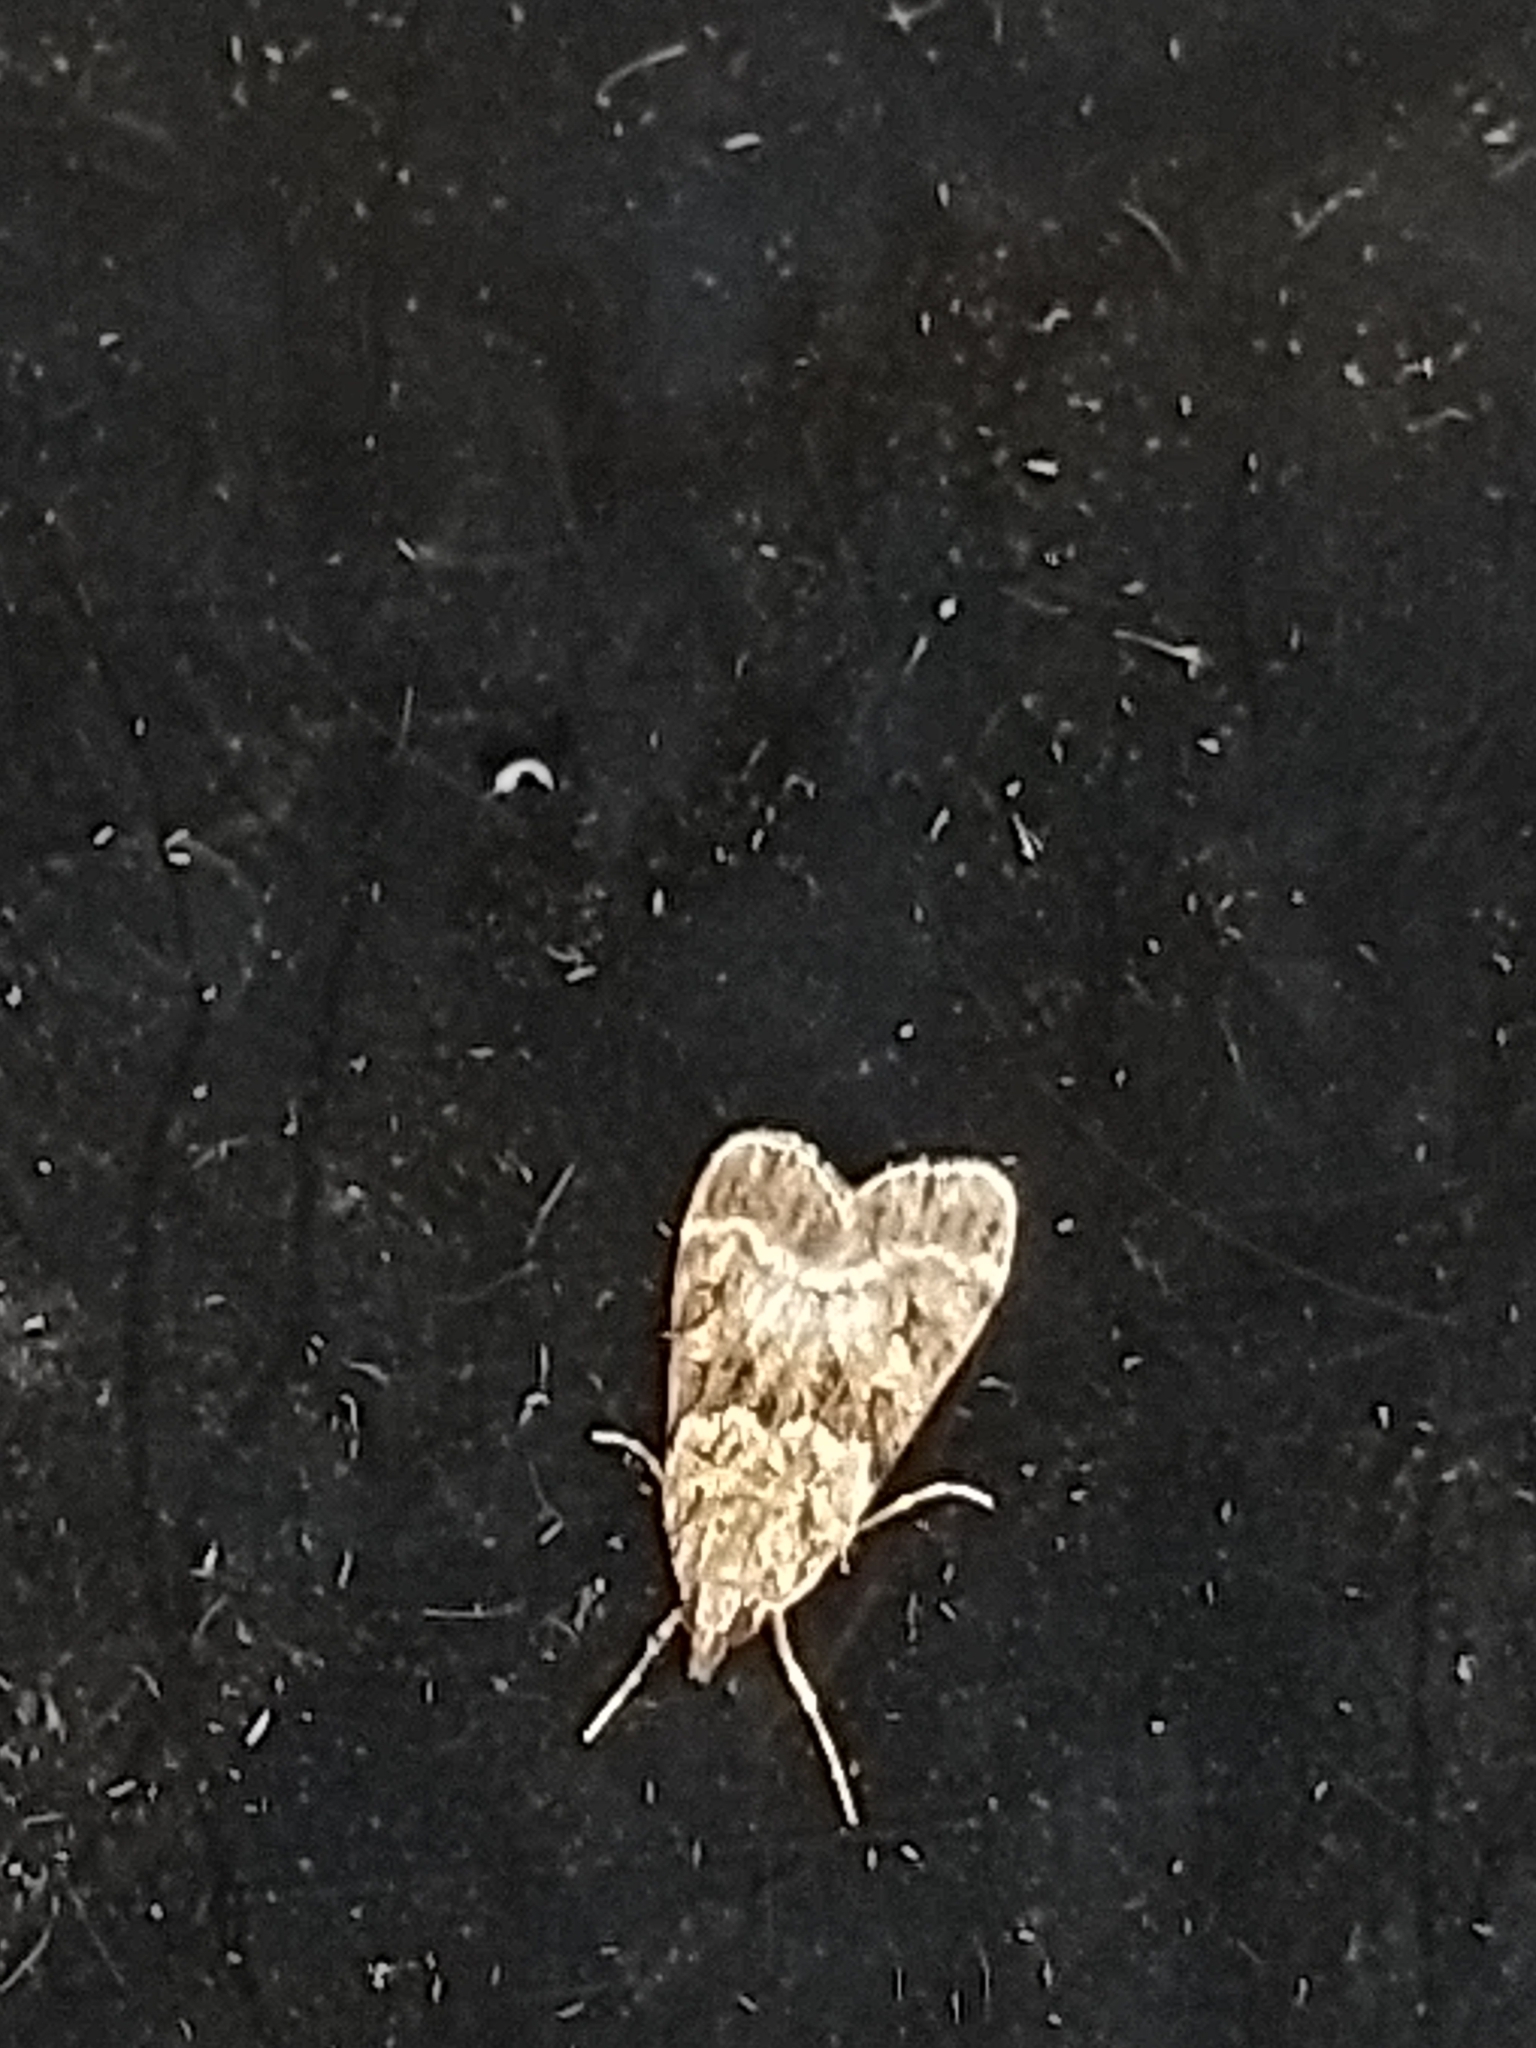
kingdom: Animalia
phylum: Arthropoda
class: Insecta
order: Lepidoptera
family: Crambidae
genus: Eudonia
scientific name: Eudonia mercurella
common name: Small grey
